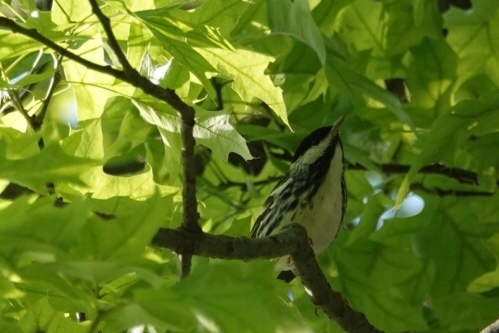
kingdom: Animalia
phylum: Chordata
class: Aves
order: Passeriformes
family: Parulidae
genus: Setophaga
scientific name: Setophaga striata
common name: Blackpoll warbler
